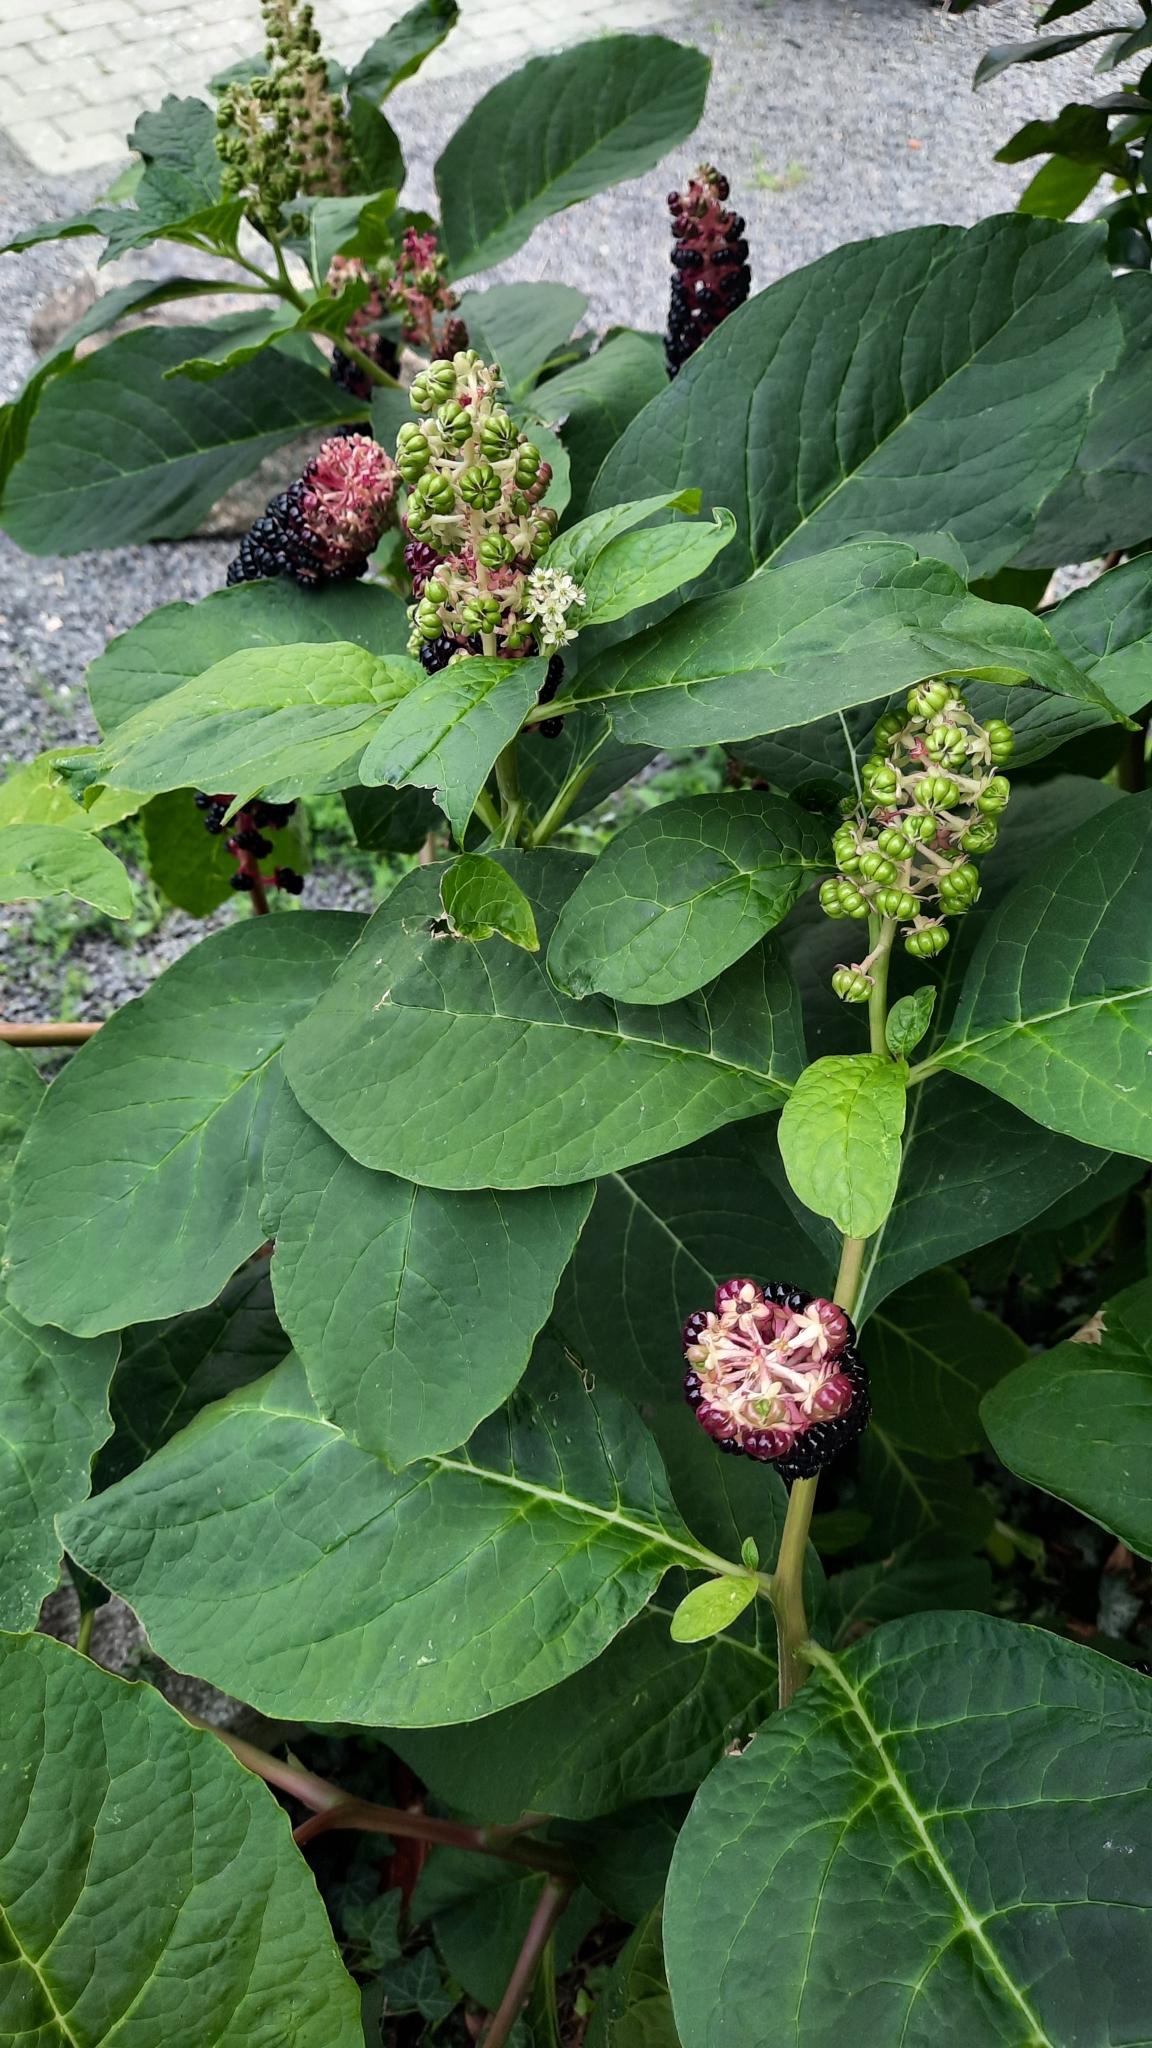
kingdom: Plantae
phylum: Tracheophyta
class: Magnoliopsida
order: Caryophyllales
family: Phytolaccaceae
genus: Phytolacca
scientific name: Phytolacca acinosa
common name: Indian pokeweed
